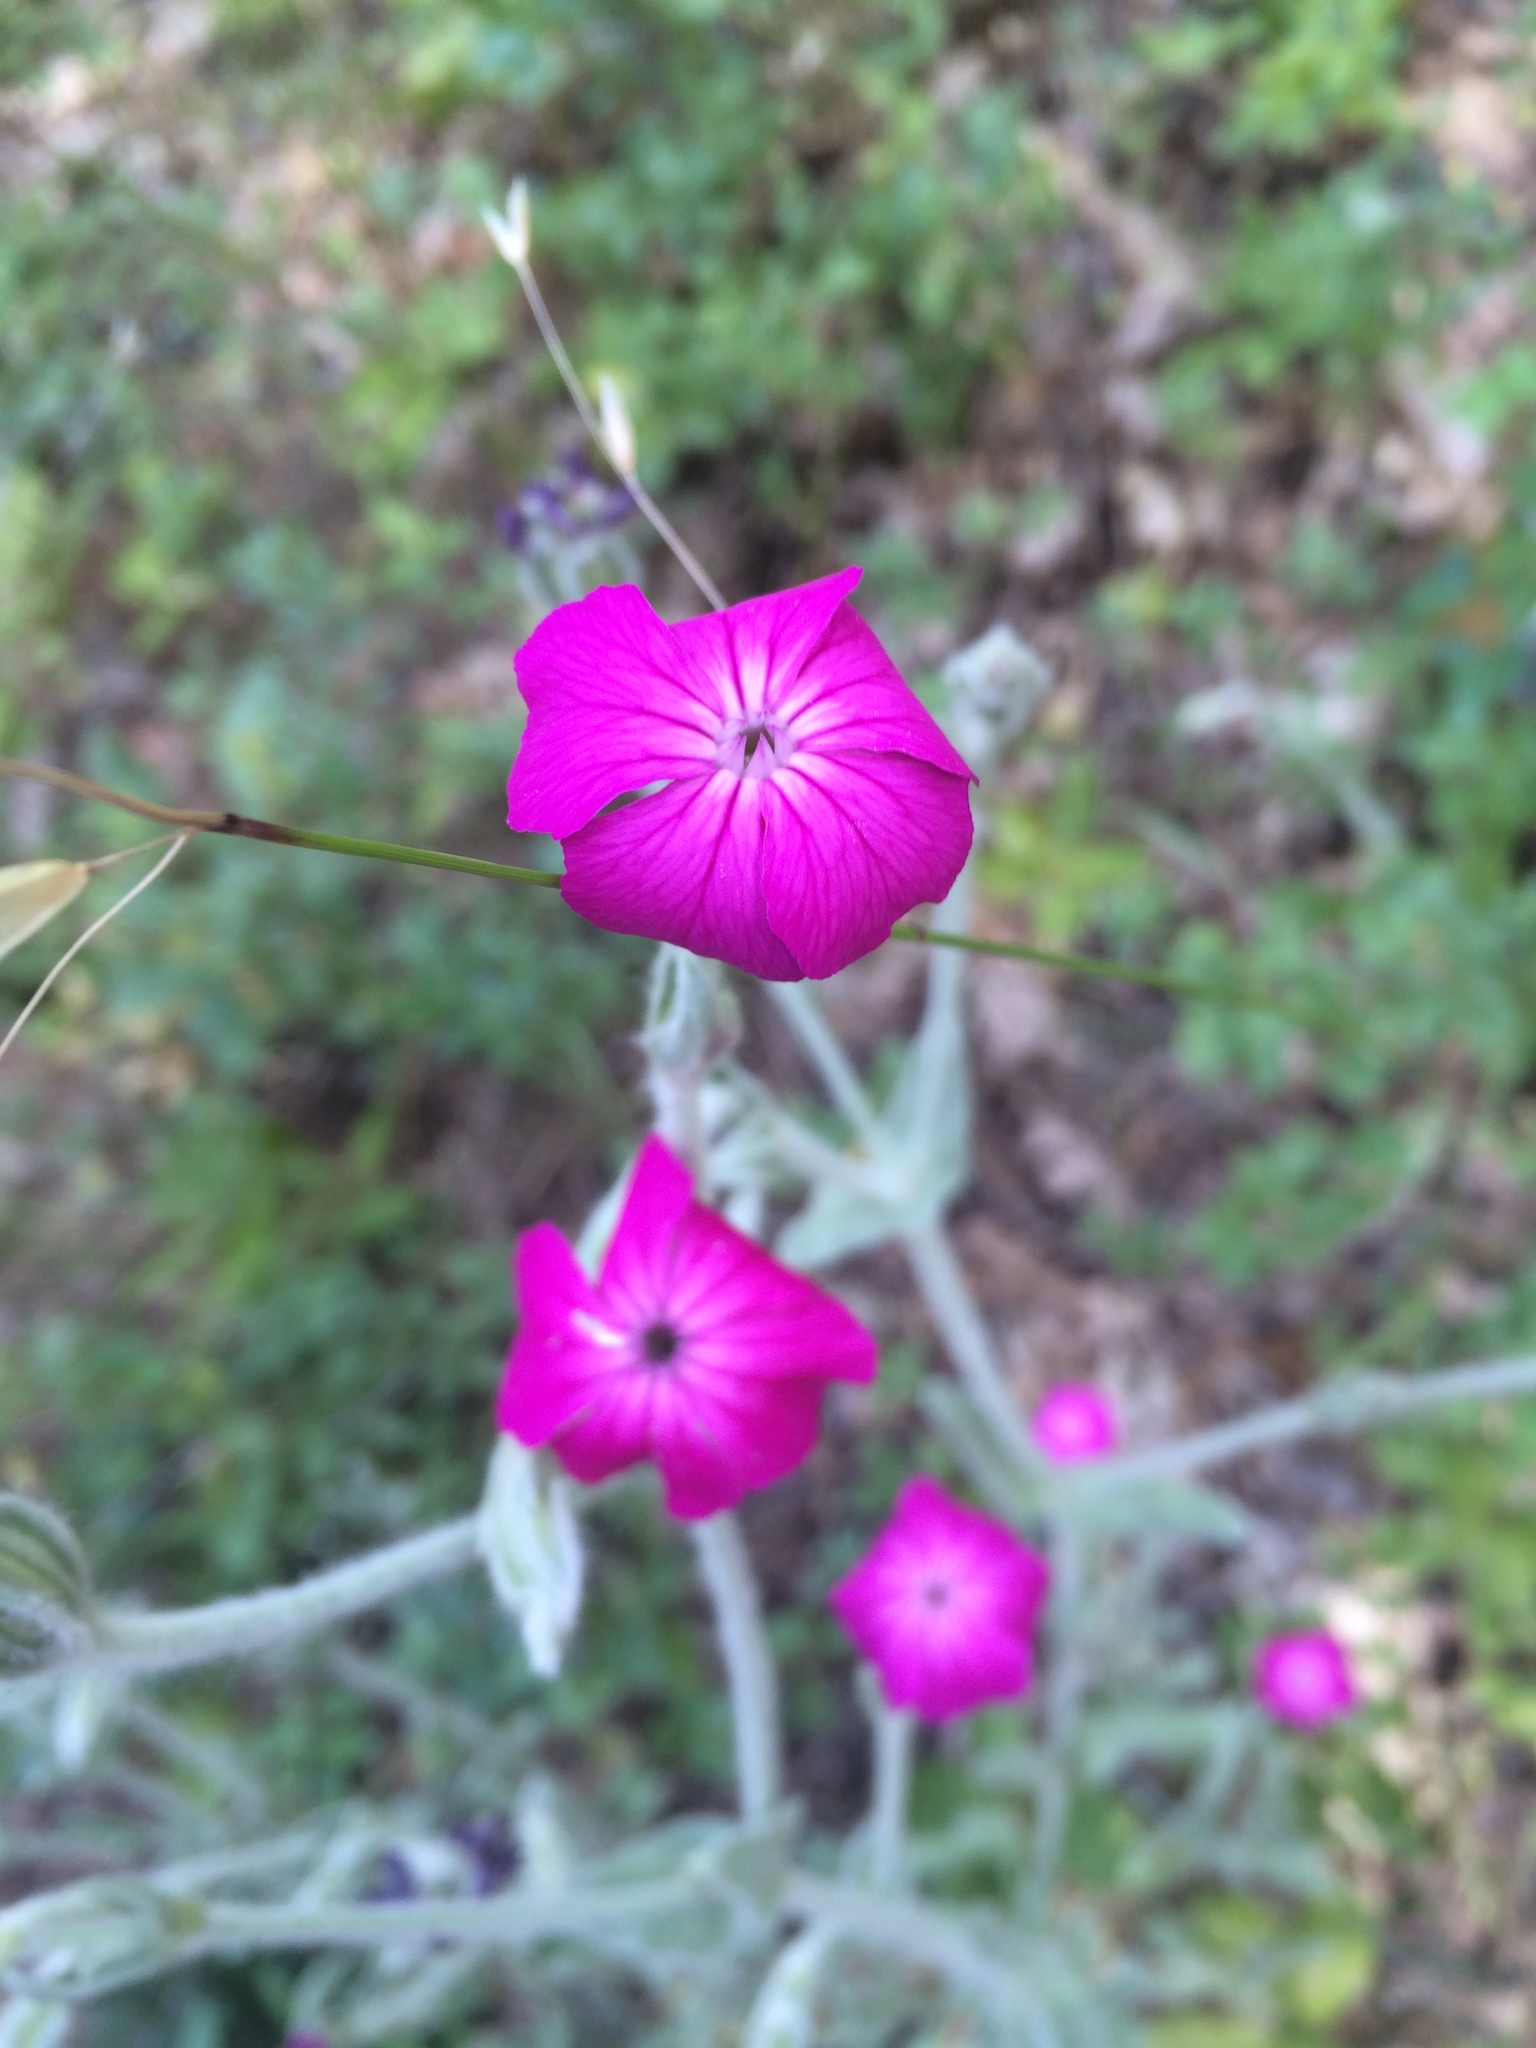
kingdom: Plantae
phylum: Tracheophyta
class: Magnoliopsida
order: Caryophyllales
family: Caryophyllaceae
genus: Silene
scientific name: Silene coronaria
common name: Rose campion
